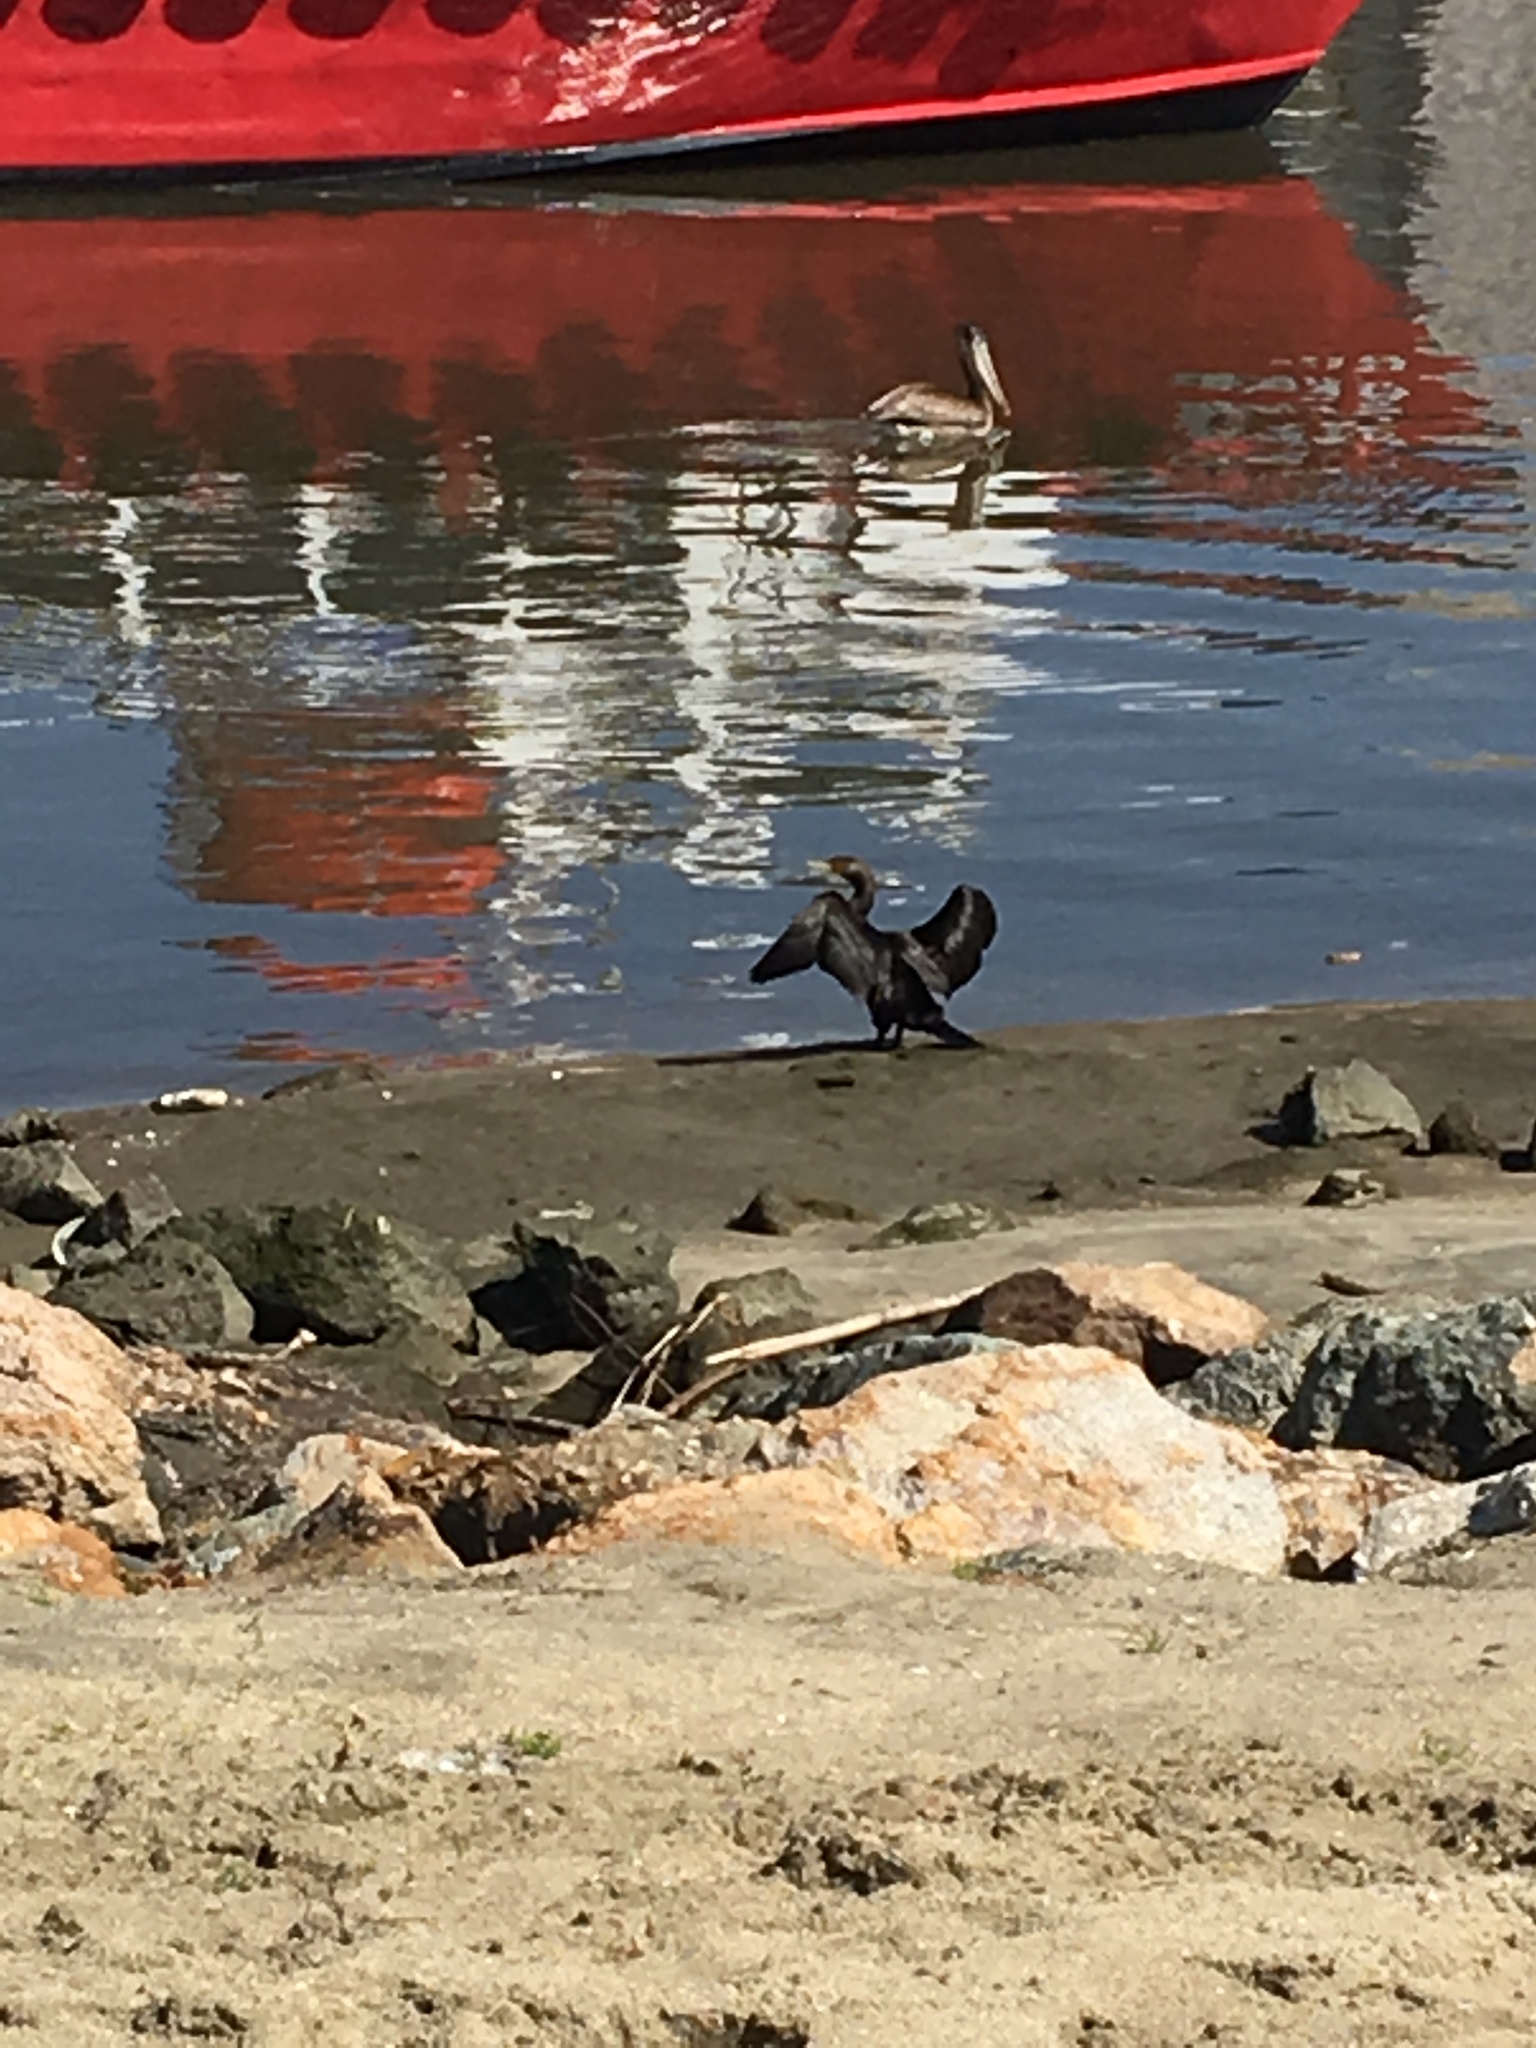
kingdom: Animalia
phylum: Chordata
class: Aves
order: Suliformes
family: Phalacrocoracidae
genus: Phalacrocorax
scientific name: Phalacrocorax auritus
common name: Double-crested cormorant
